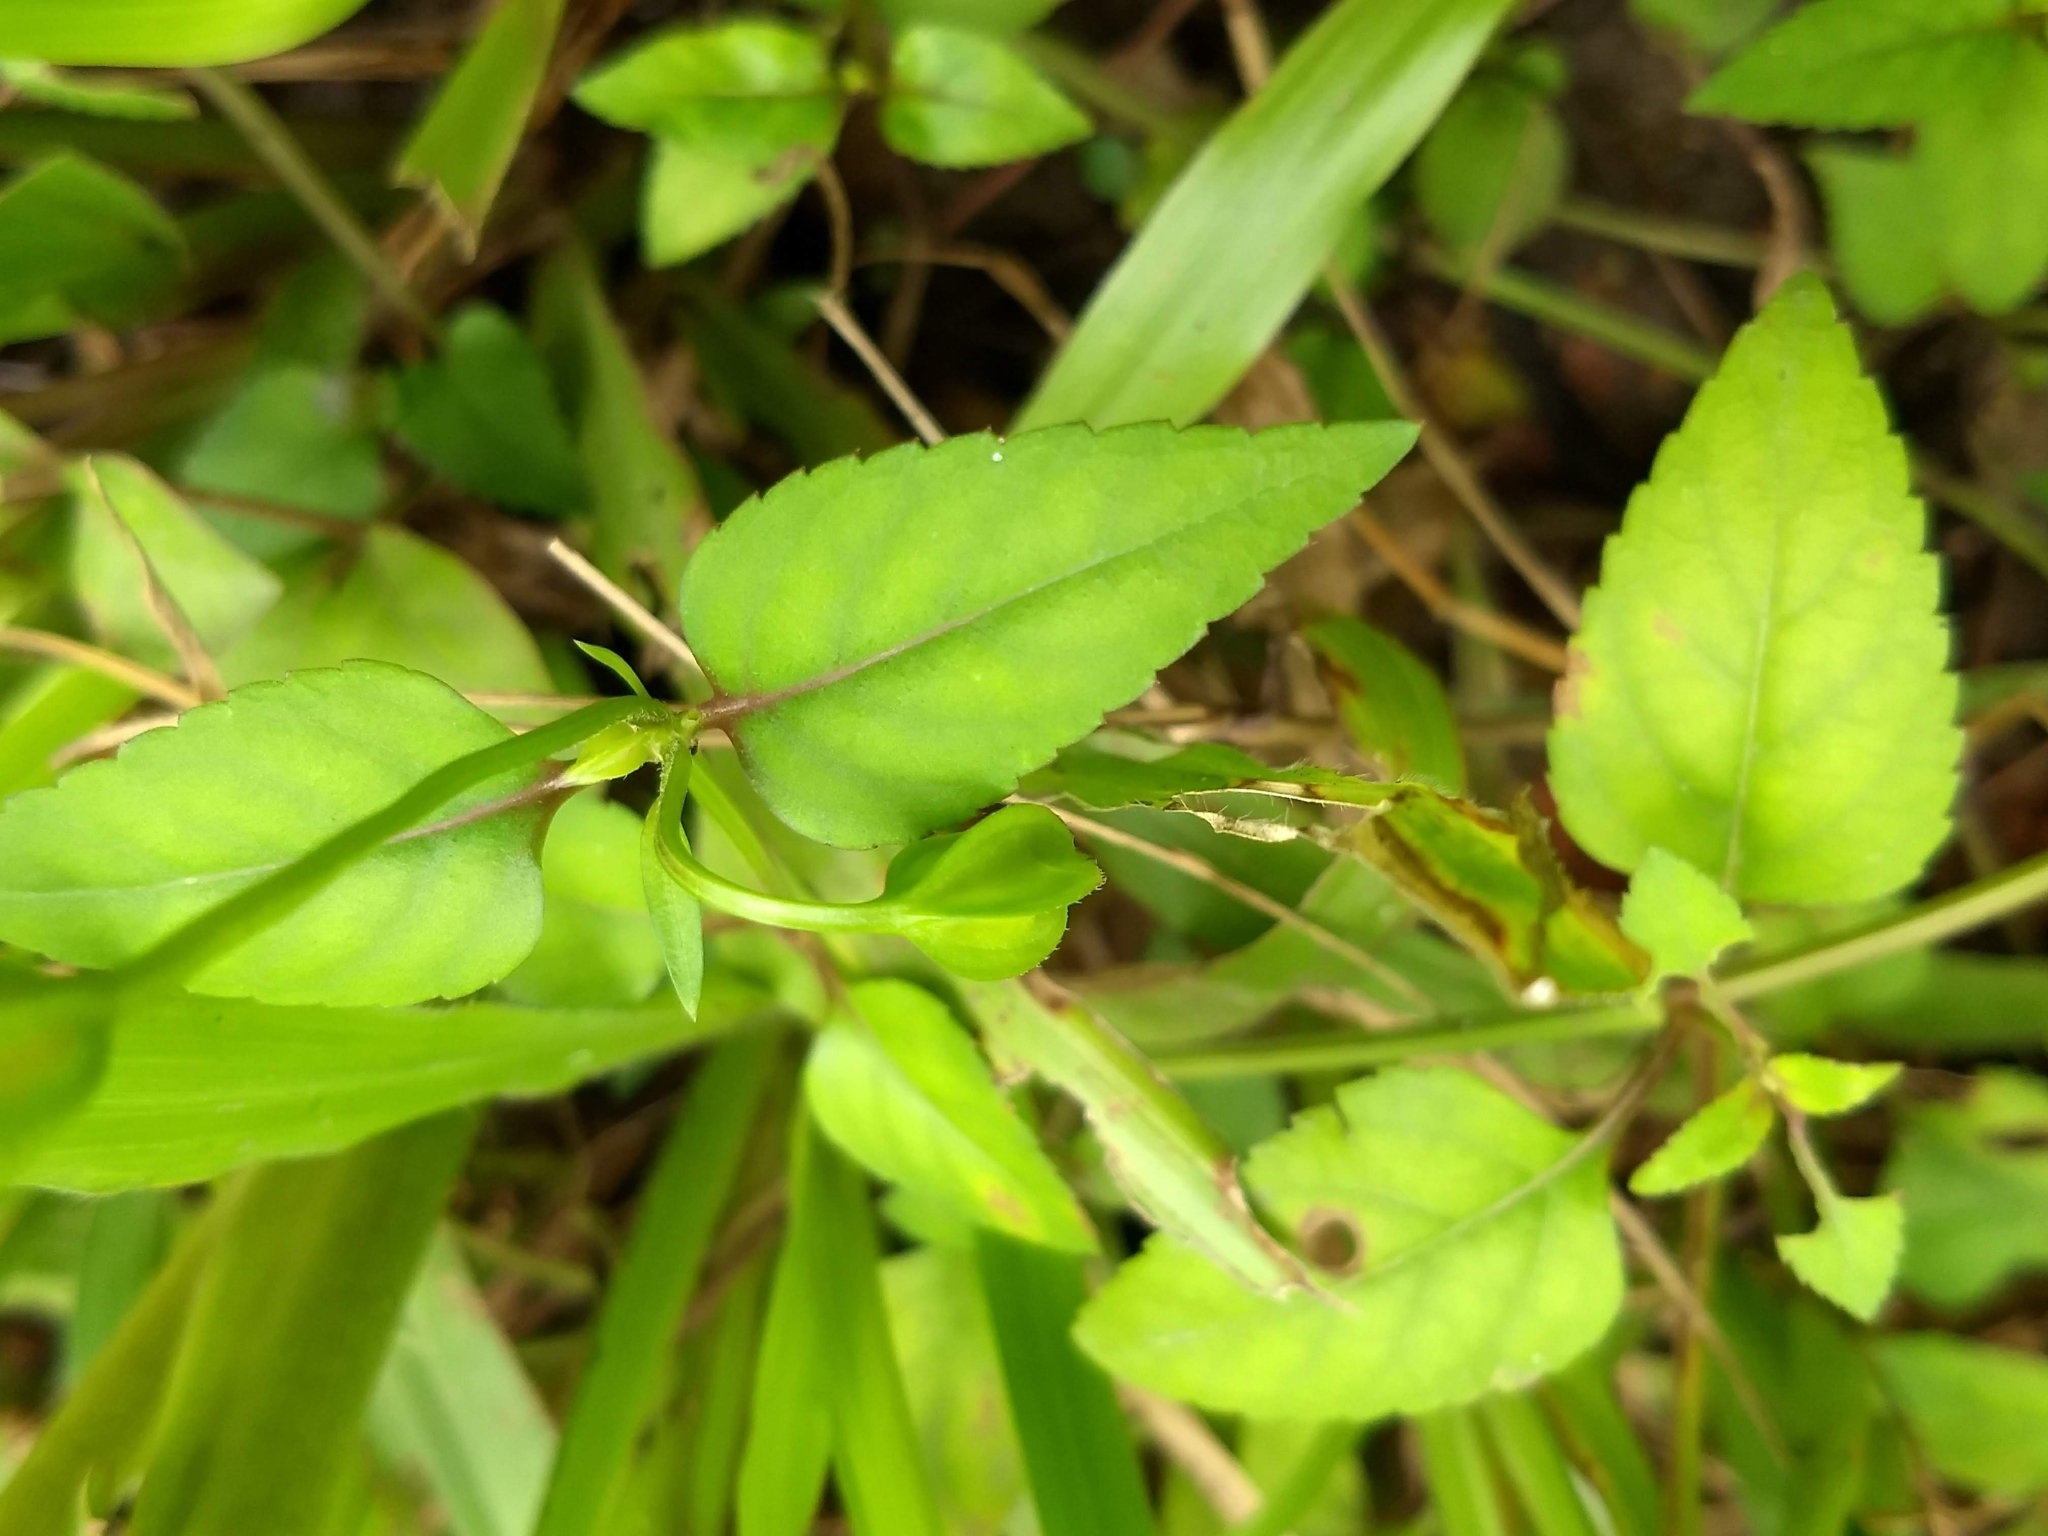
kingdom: Plantae
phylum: Tracheophyta
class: Magnoliopsida
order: Lamiales
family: Linderniaceae
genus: Torenia
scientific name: Torenia fournieri
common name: Bluewings
